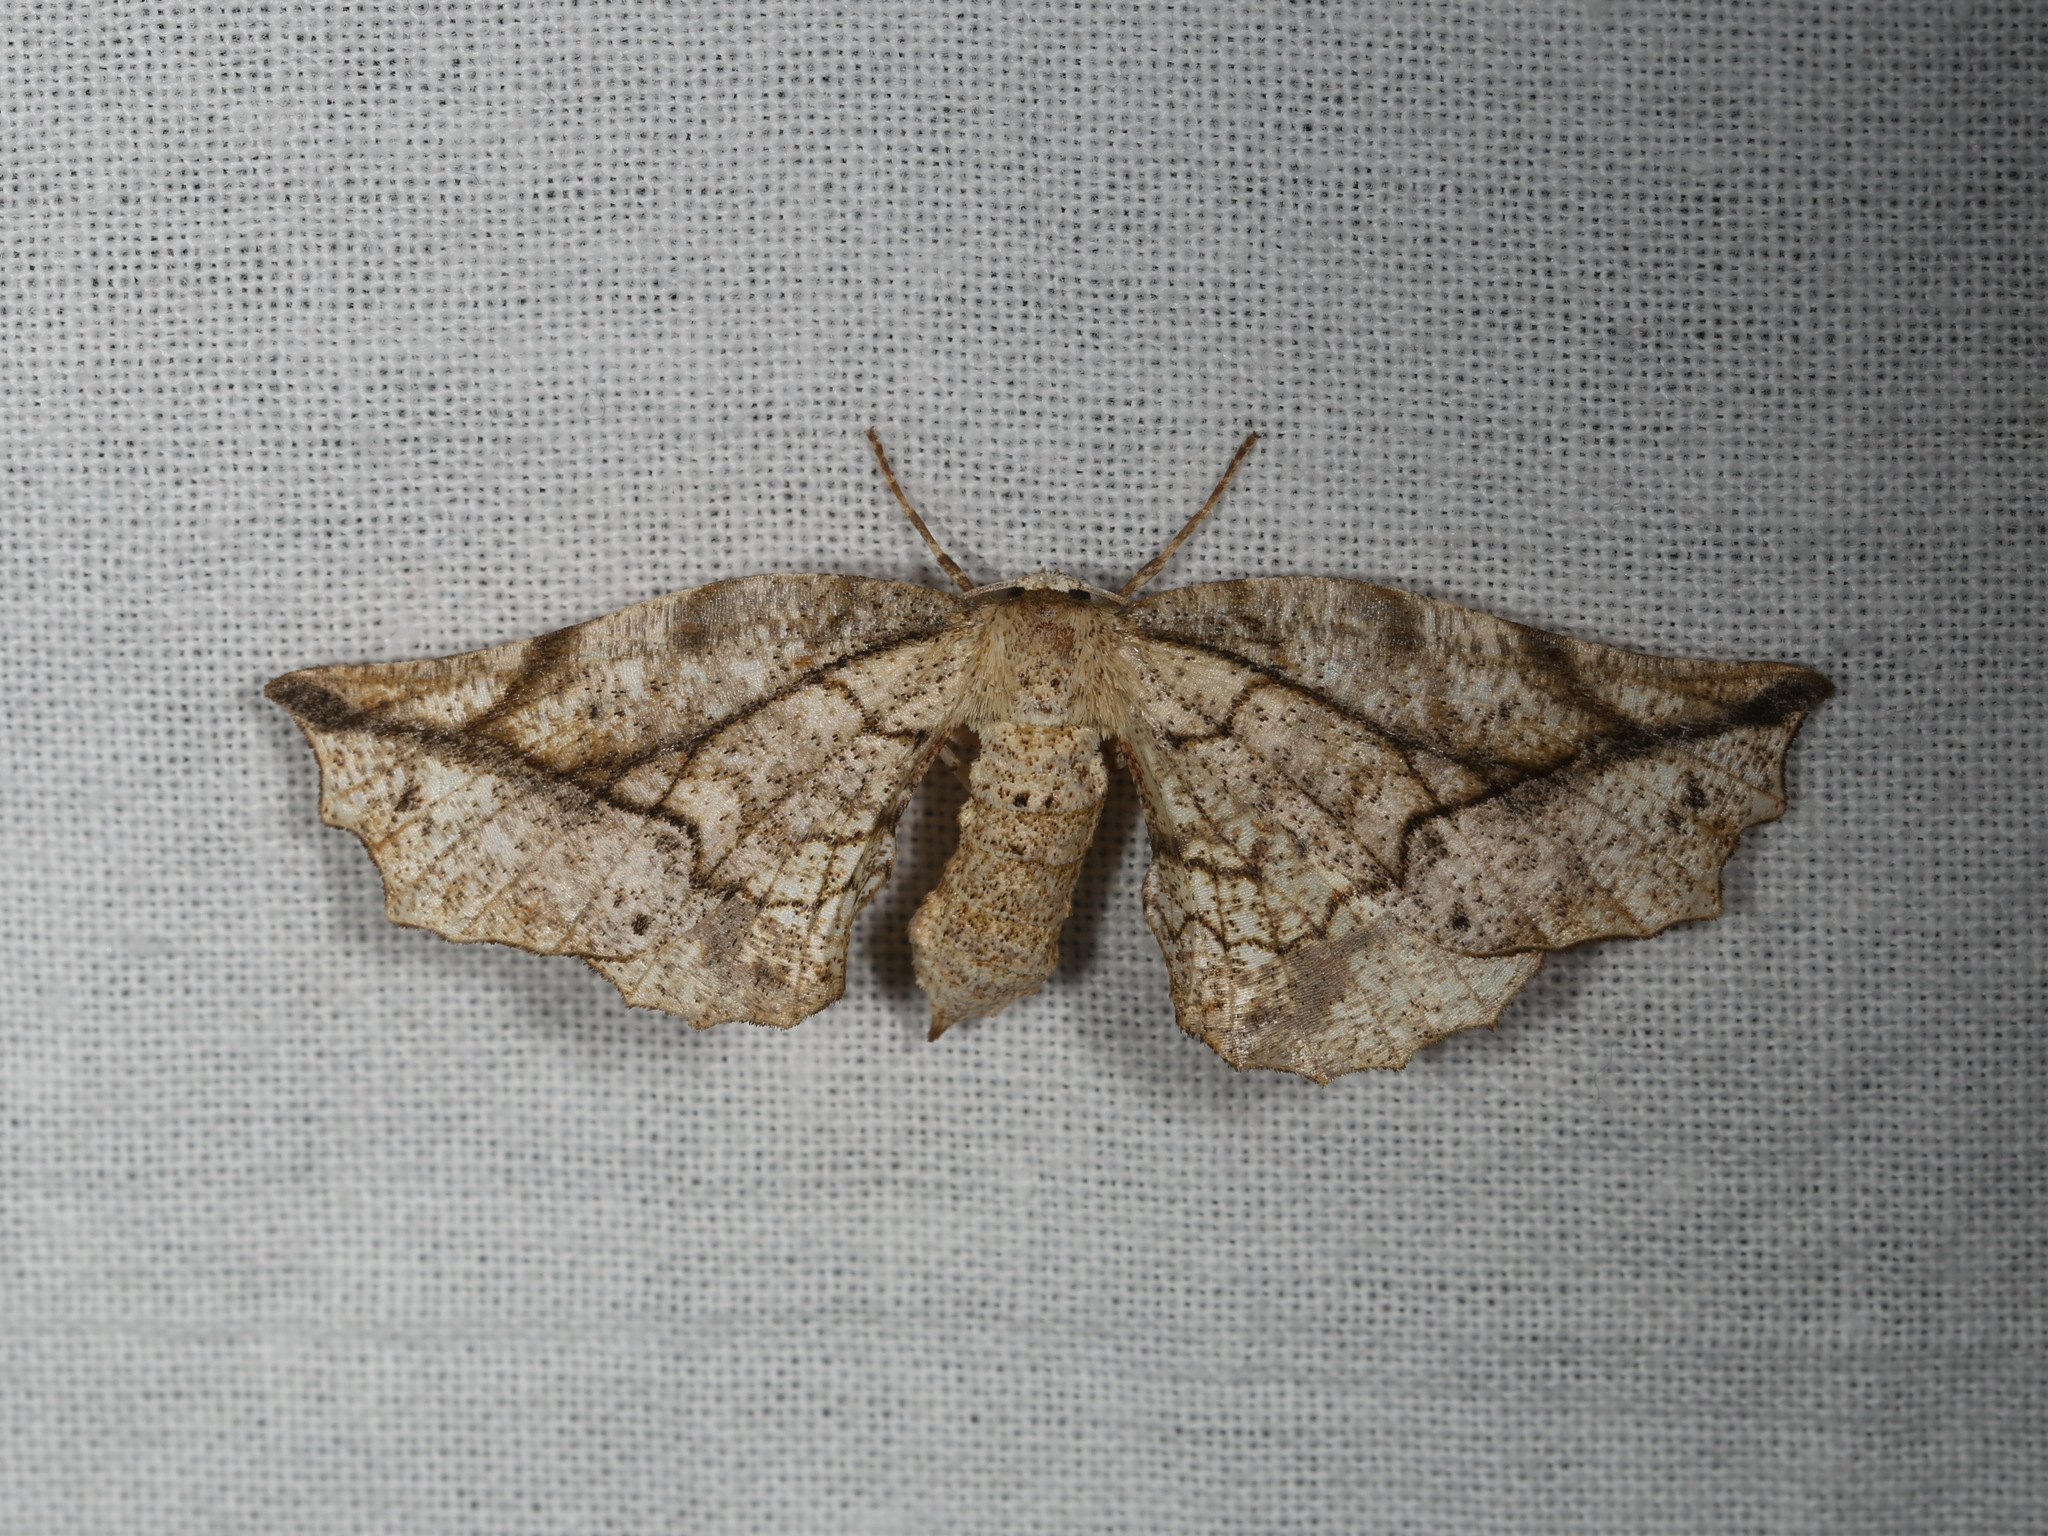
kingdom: Animalia
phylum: Arthropoda
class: Insecta
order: Lepidoptera
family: Geometridae
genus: Parepisparis
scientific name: Parepisparis rutila
